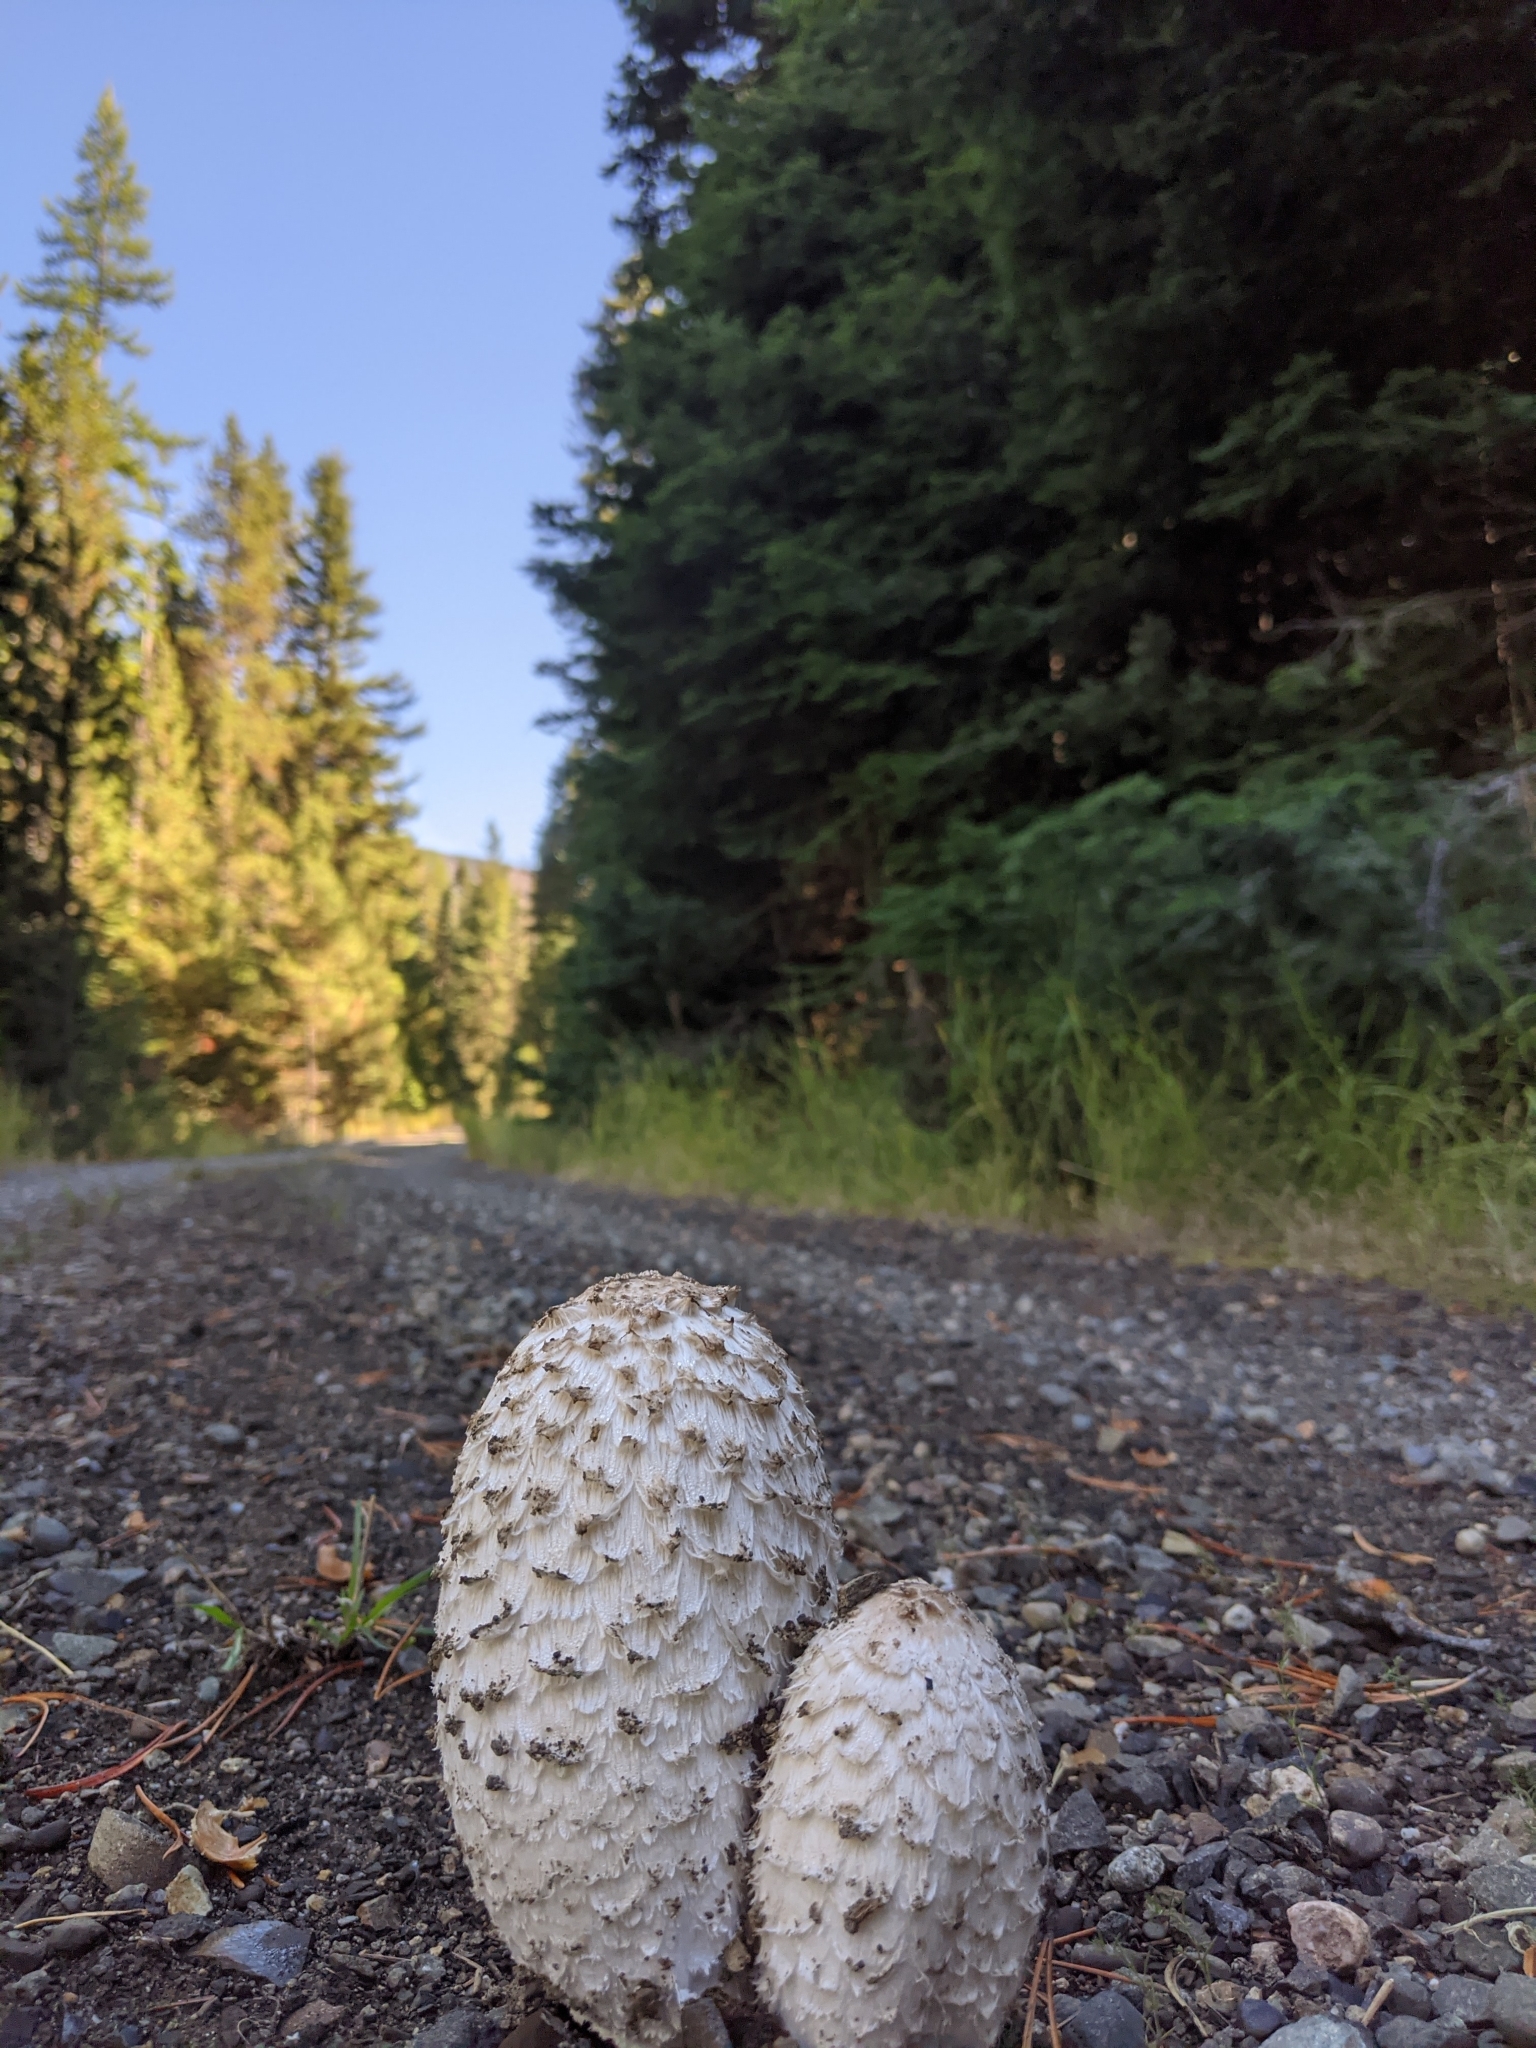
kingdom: Fungi
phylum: Basidiomycota
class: Agaricomycetes
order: Agaricales
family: Agaricaceae
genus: Coprinus
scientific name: Coprinus comatus
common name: Lawyer's wig
